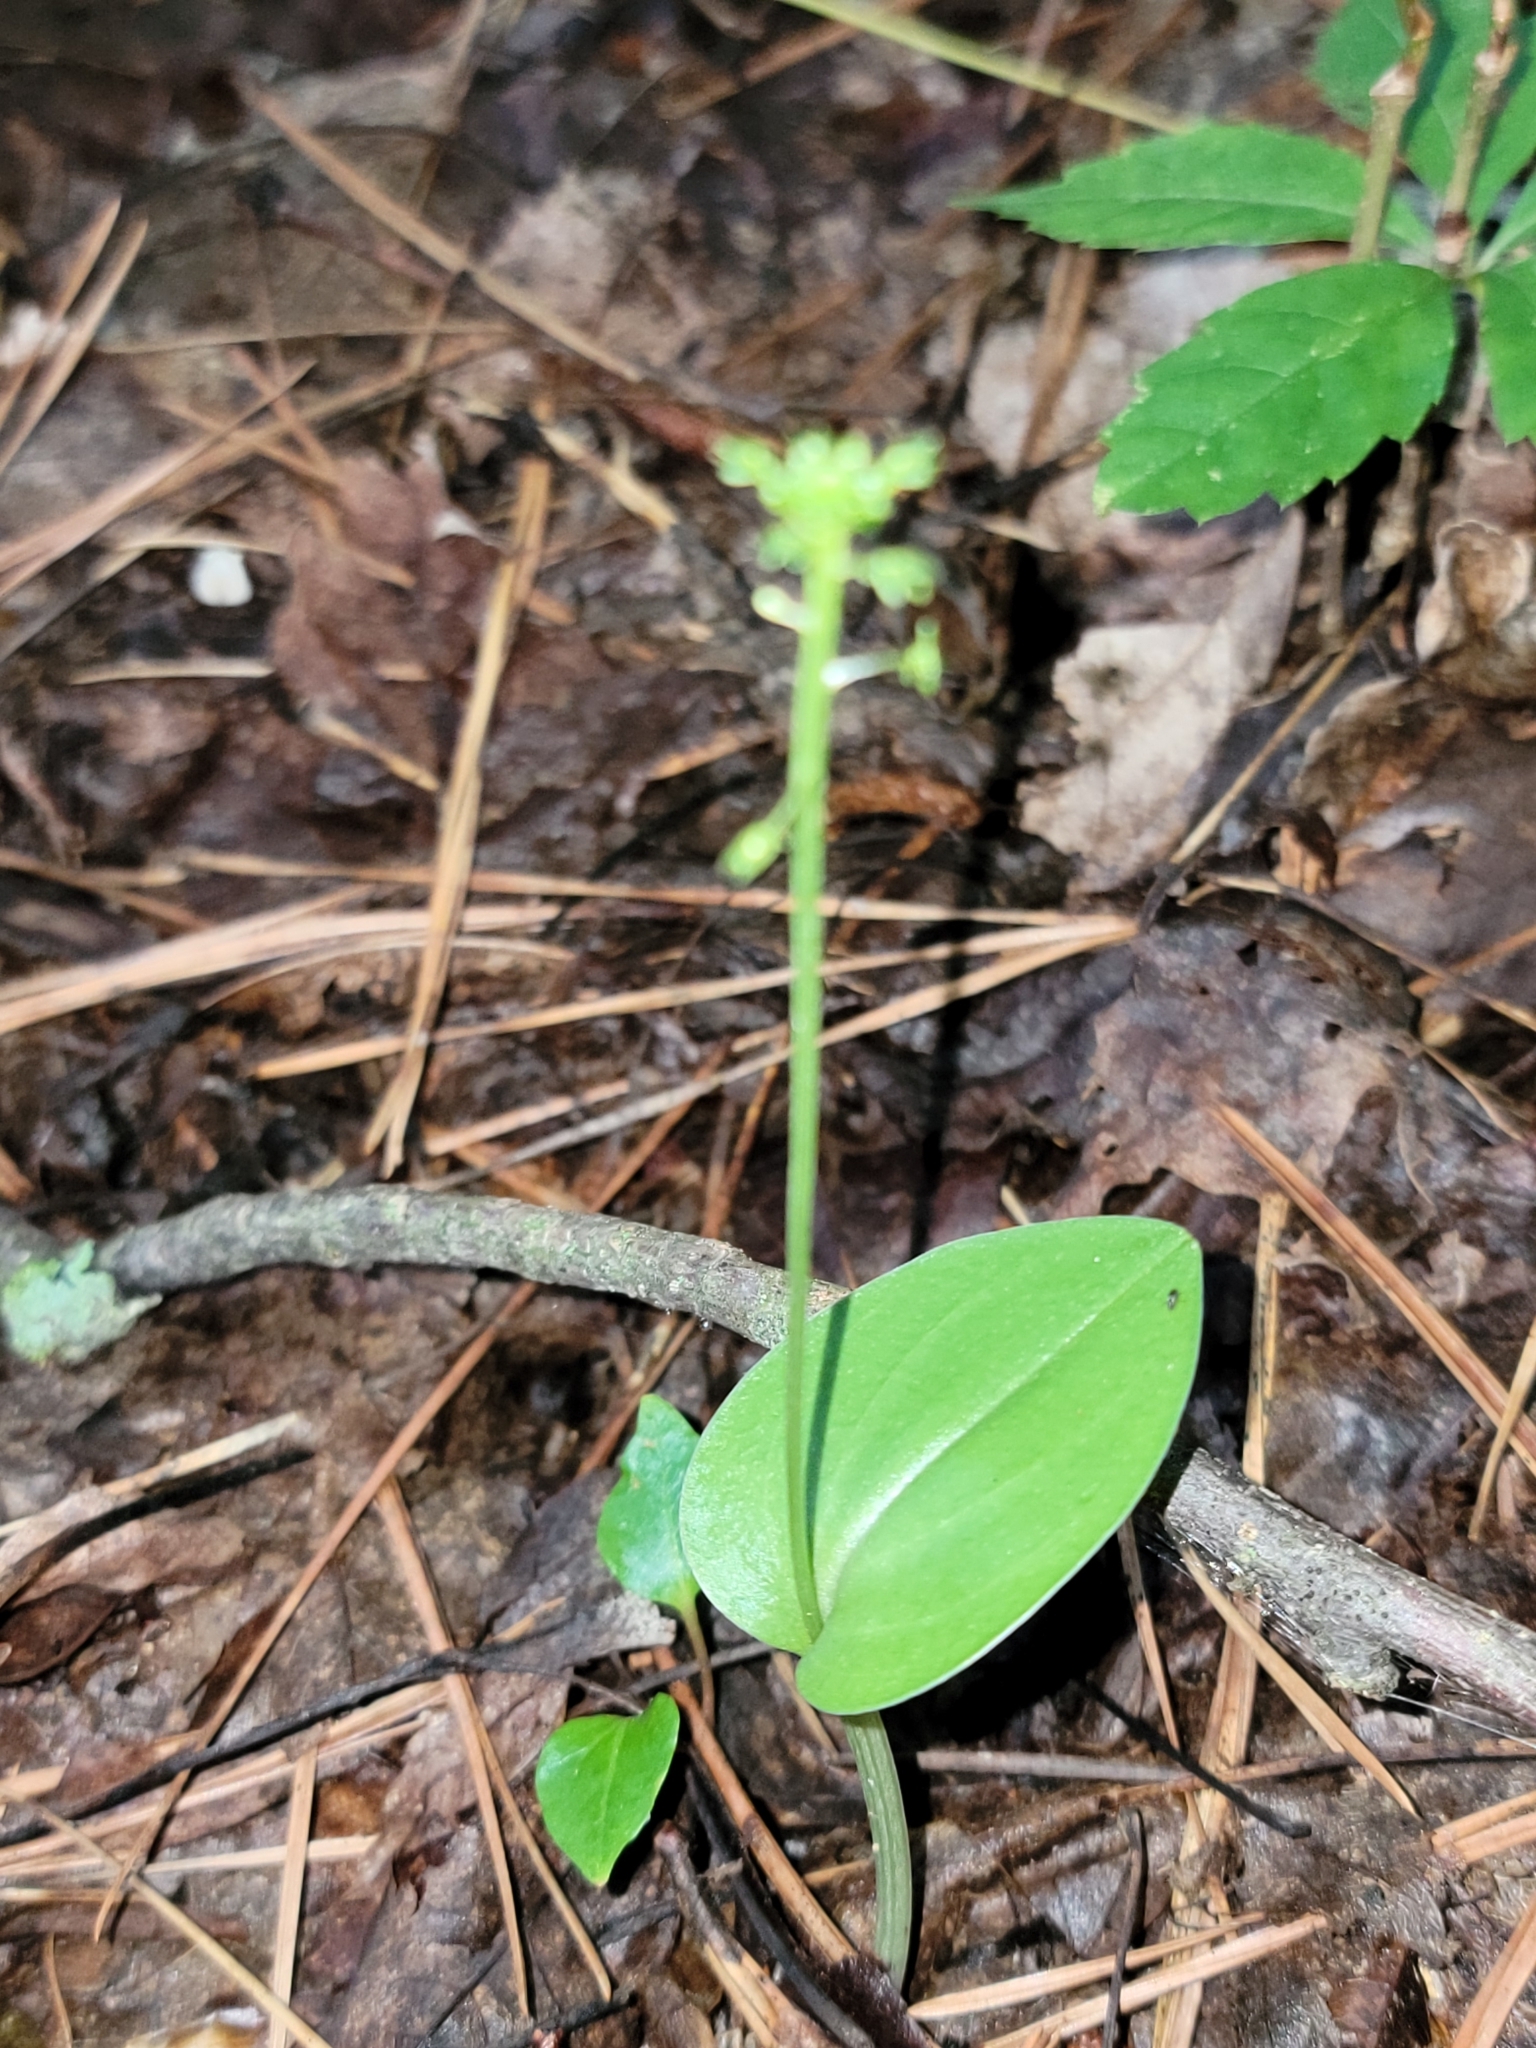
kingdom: Plantae
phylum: Tracheophyta
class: Liliopsida
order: Asparagales
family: Orchidaceae
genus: Malaxis
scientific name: Malaxis unifolia
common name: Green adder's-mouth
